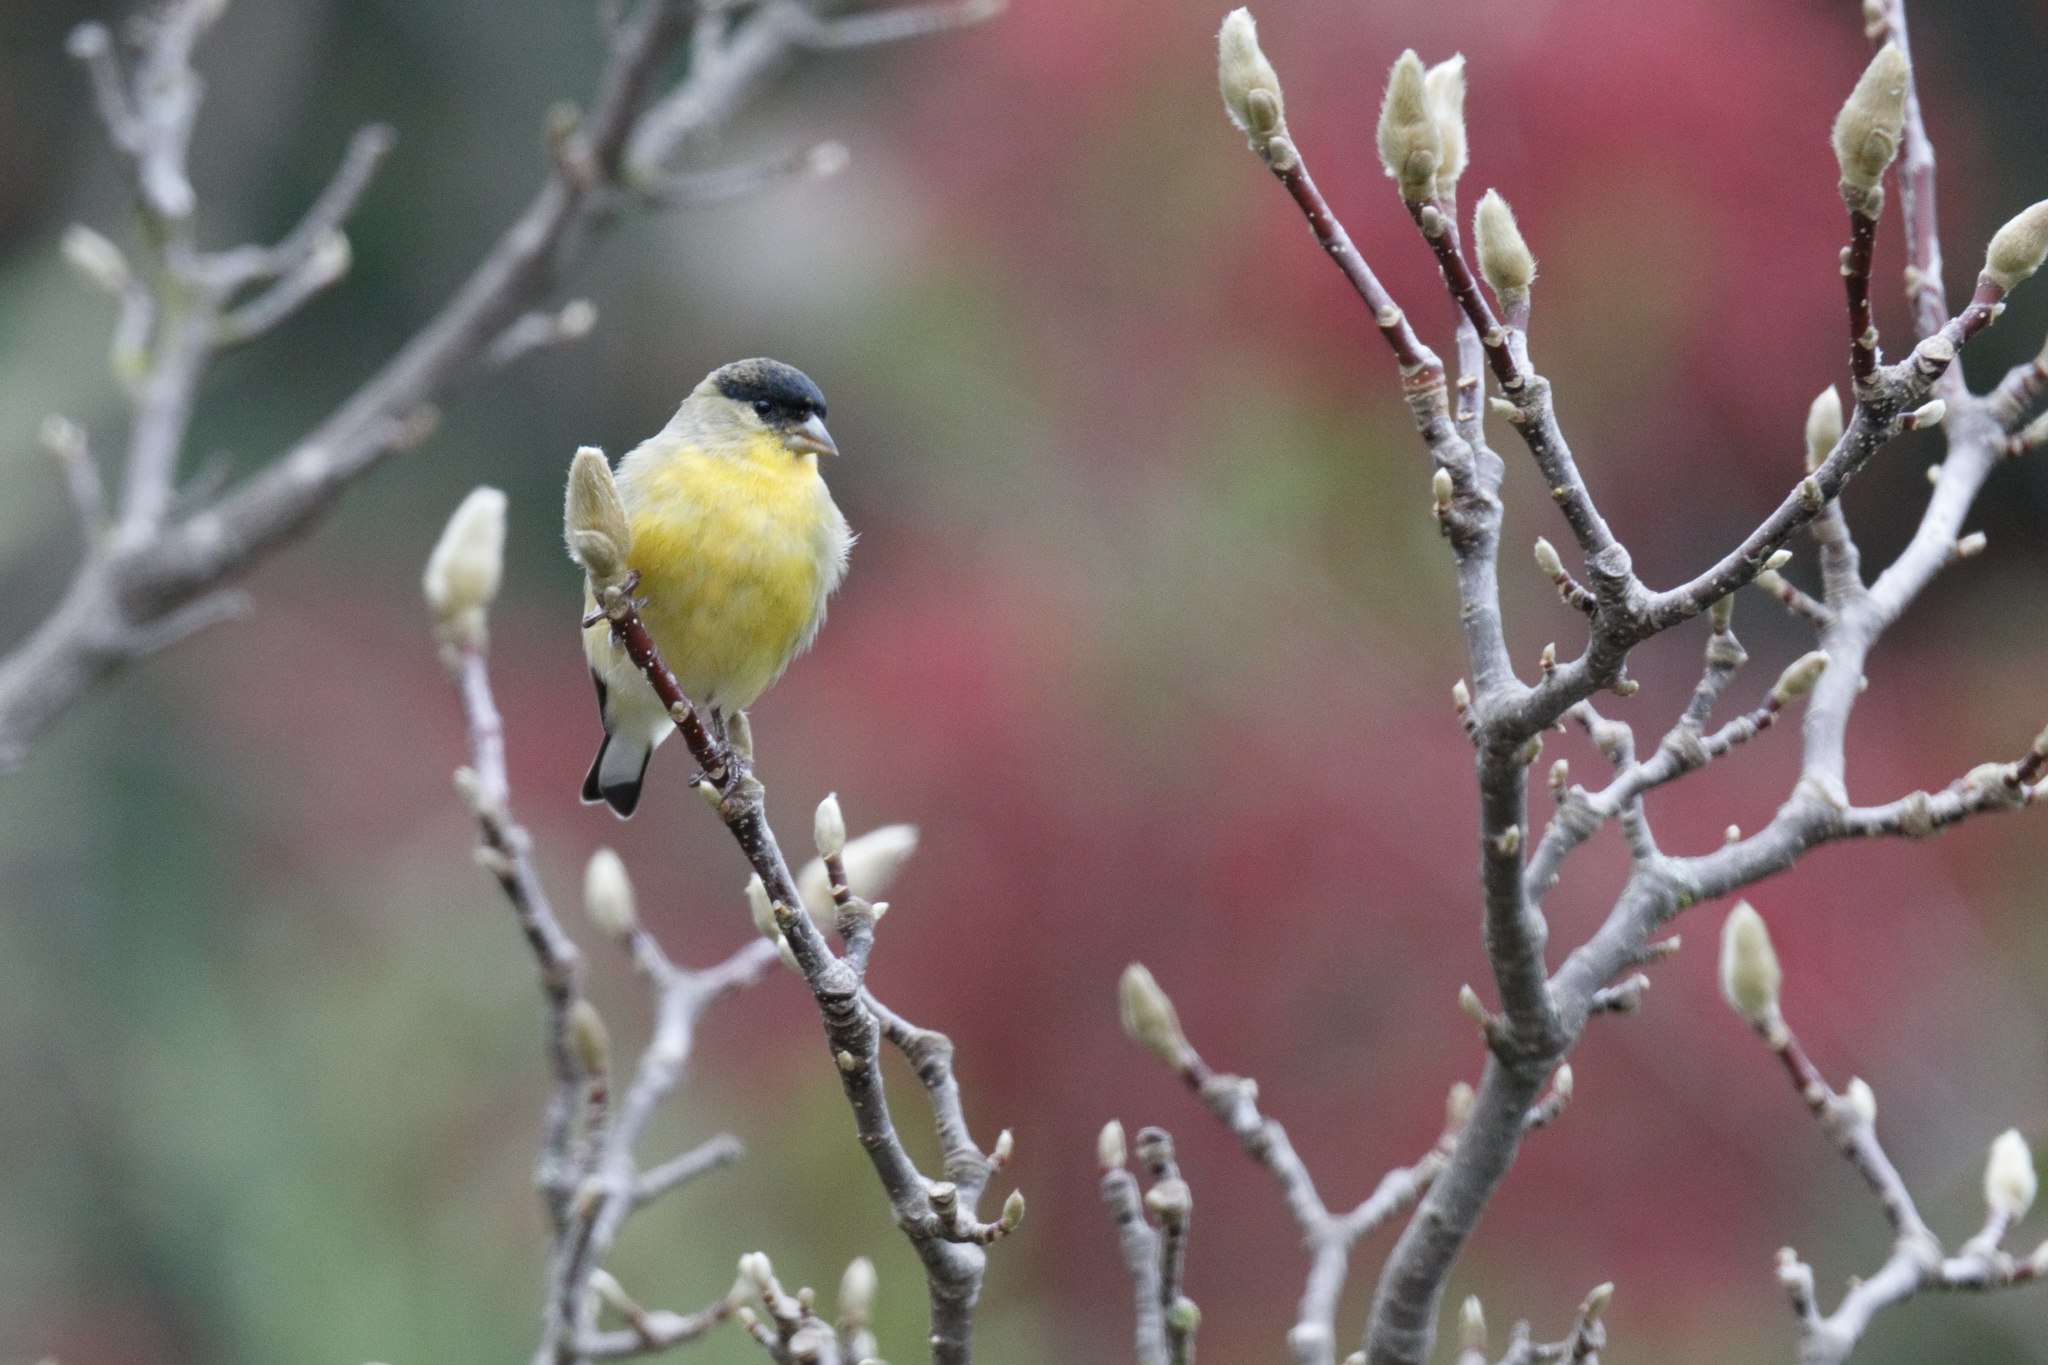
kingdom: Animalia
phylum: Chordata
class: Aves
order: Passeriformes
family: Fringillidae
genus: Spinus
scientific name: Spinus psaltria
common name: Lesser goldfinch
